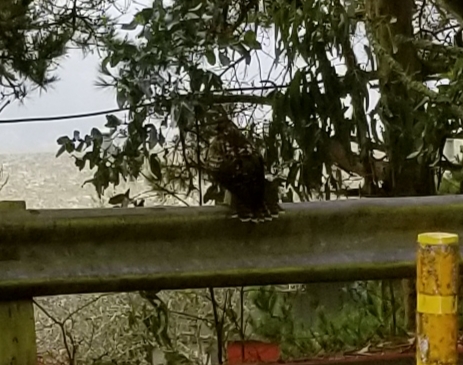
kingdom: Animalia
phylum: Chordata
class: Aves
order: Accipitriformes
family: Accipitridae
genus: Buteo
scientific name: Buteo jamaicensis
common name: Red-tailed hawk
